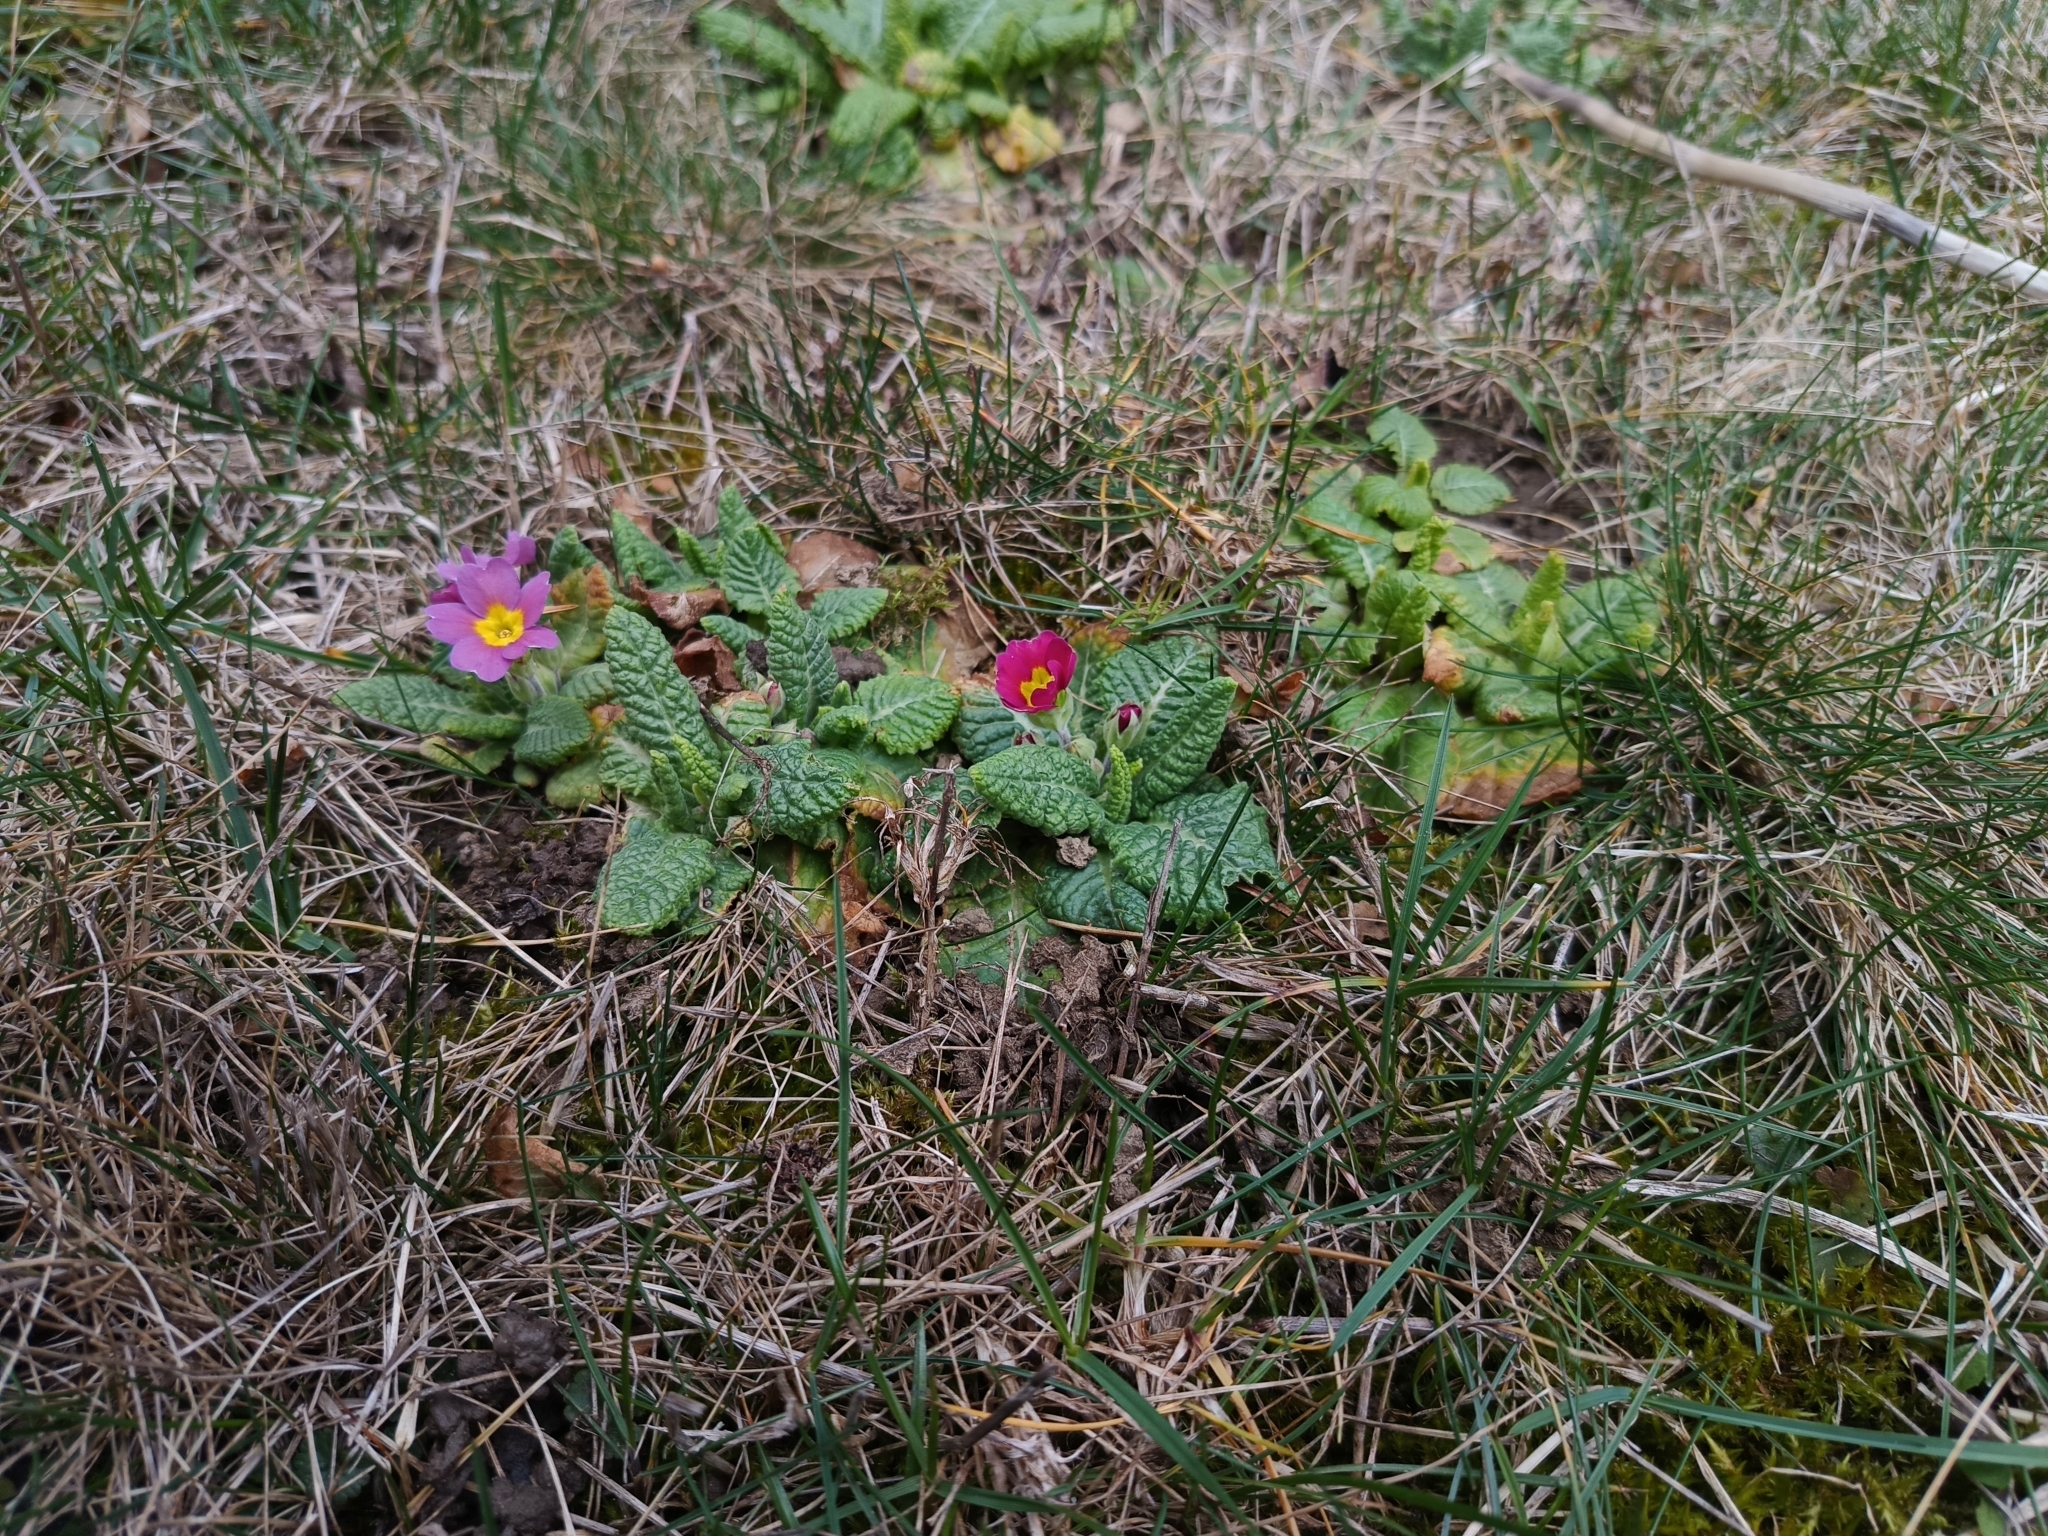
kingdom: Plantae
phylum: Tracheophyta
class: Magnoliopsida
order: Ericales
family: Primulaceae
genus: Primula
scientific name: Primula vulgaris
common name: Primrose
